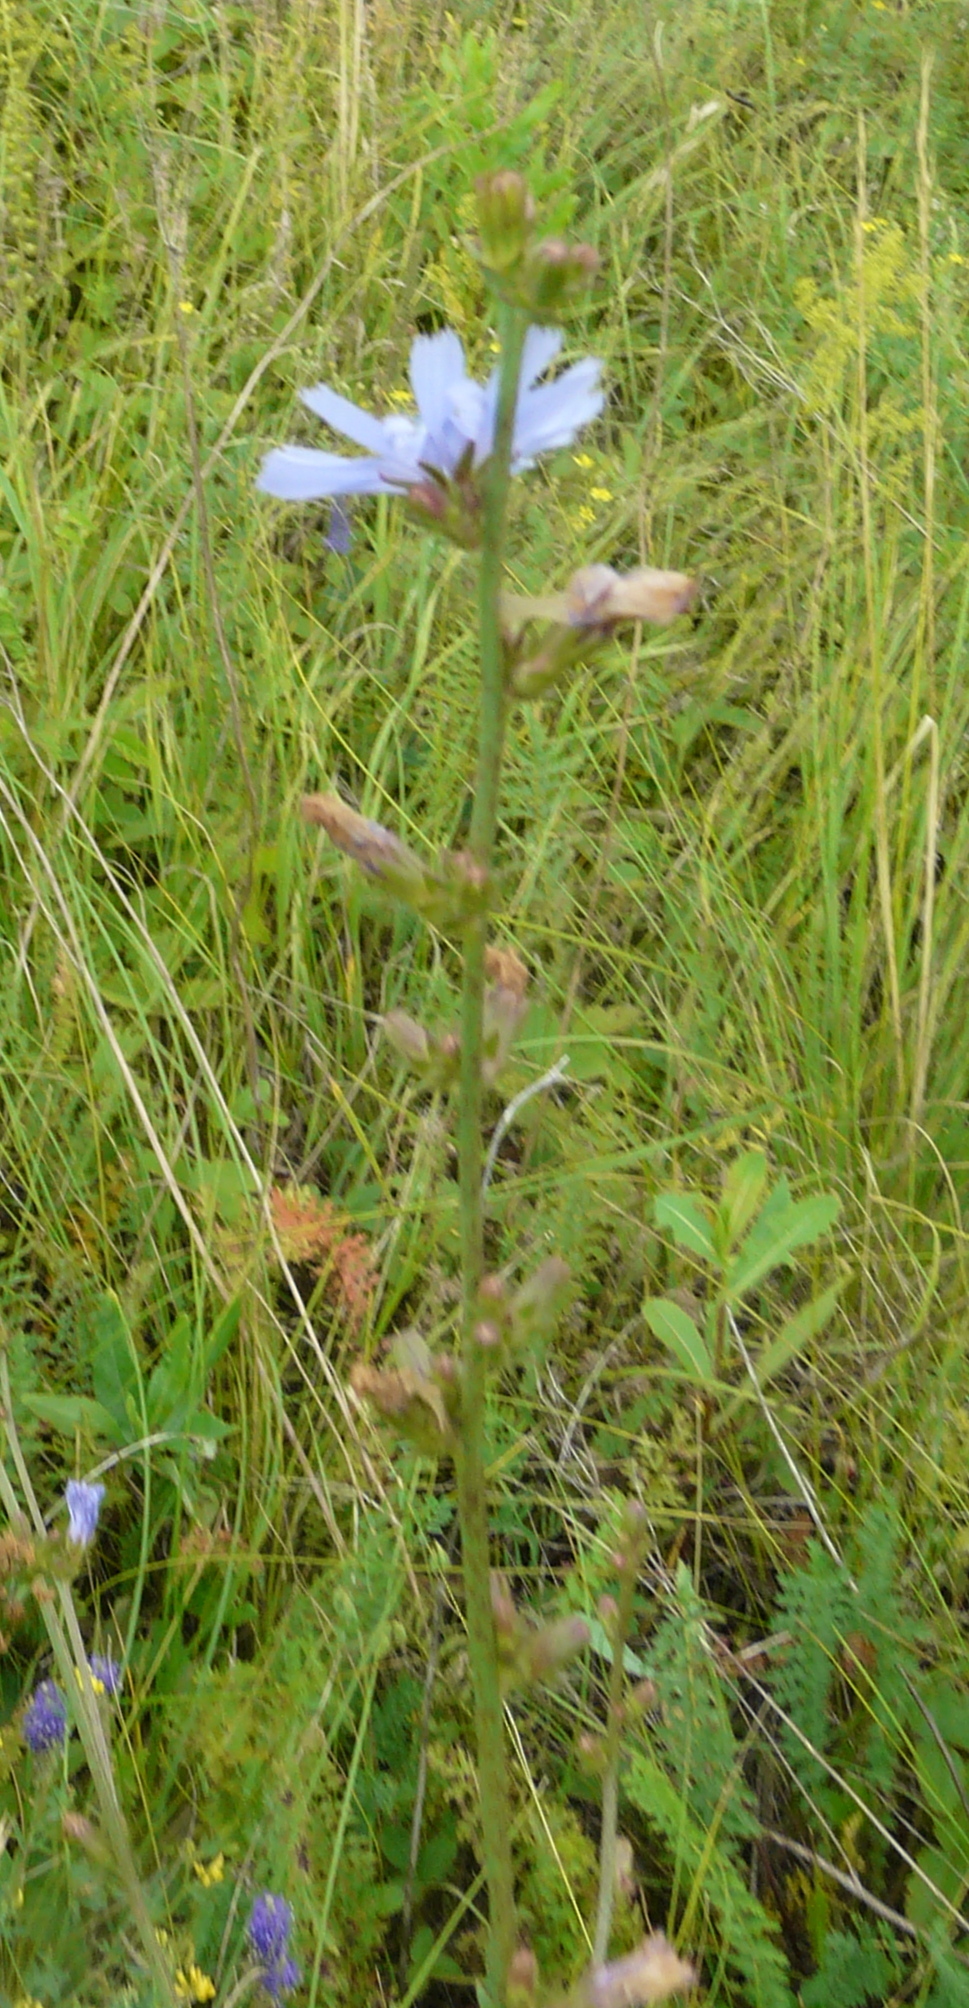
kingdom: Plantae
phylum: Tracheophyta
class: Magnoliopsida
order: Asterales
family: Asteraceae
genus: Cichorium
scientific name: Cichorium intybus
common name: Chicory
